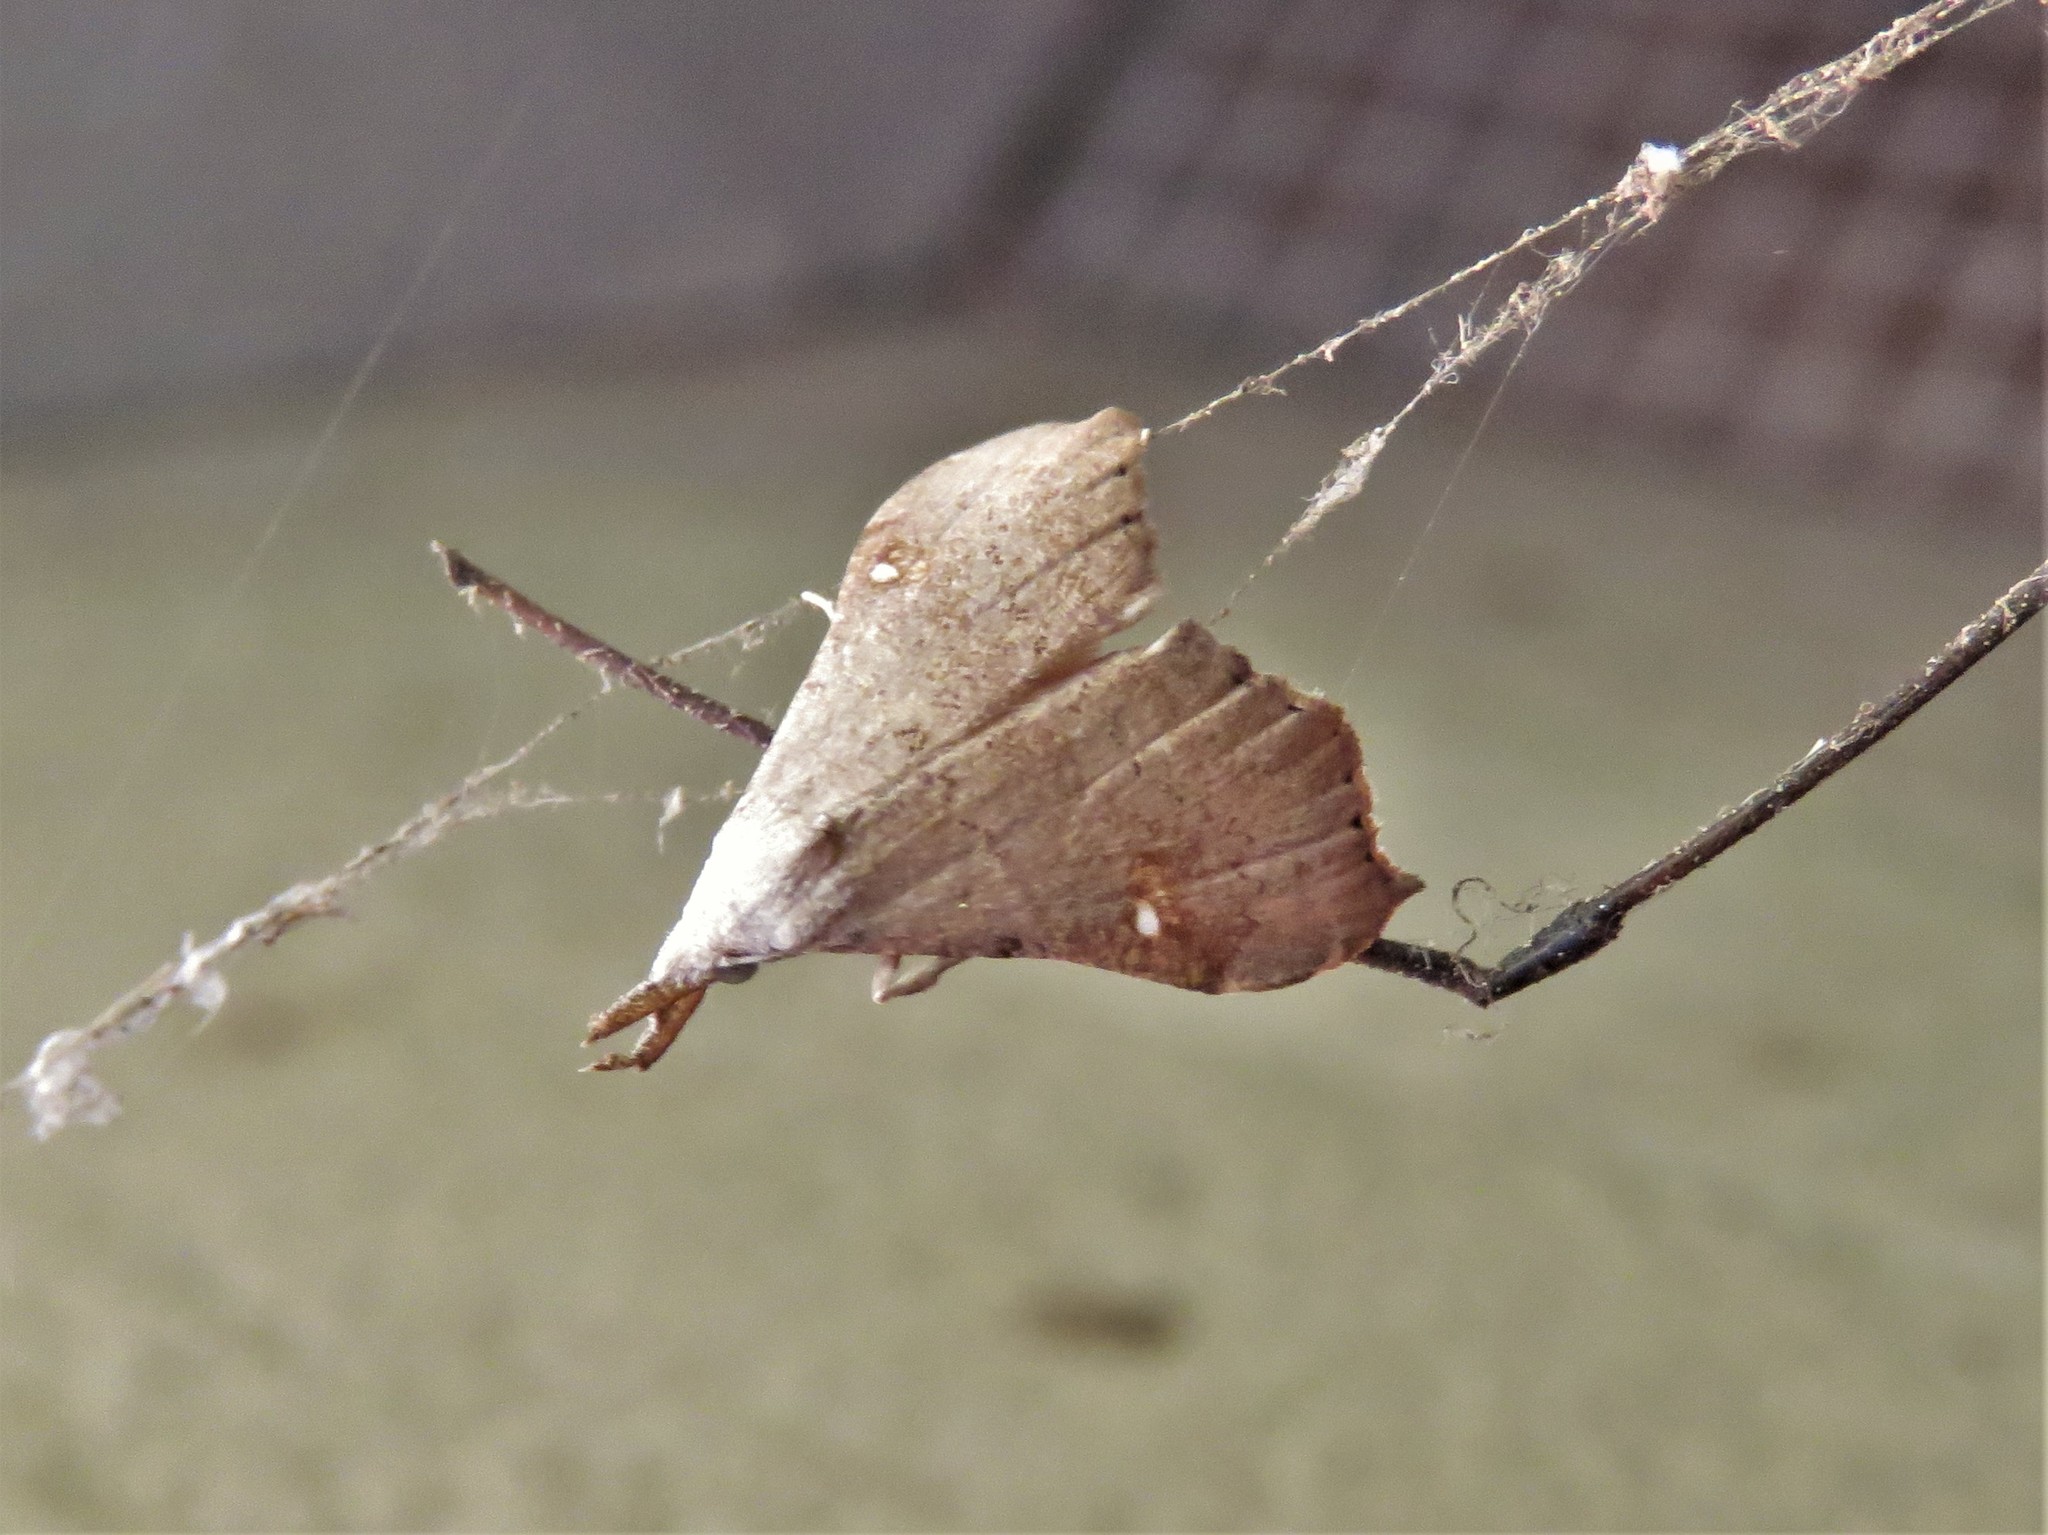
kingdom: Animalia
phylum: Arthropoda
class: Insecta
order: Lepidoptera
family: Erebidae
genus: Redectis
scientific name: Redectis vitrea
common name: White-spotted redectis
